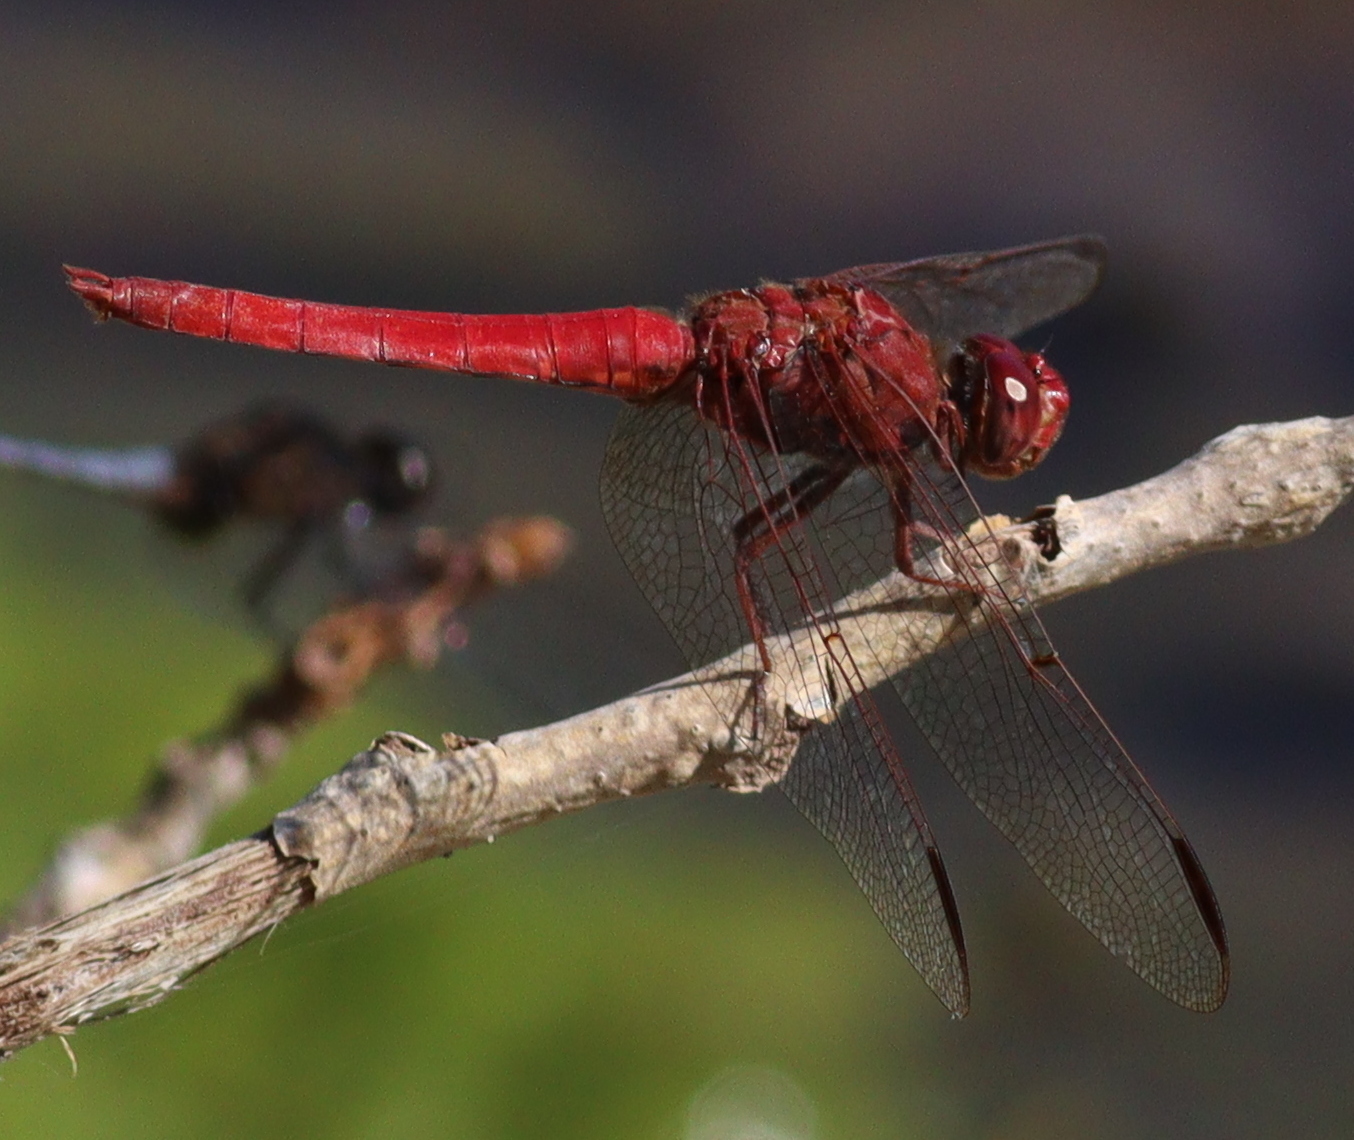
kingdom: Animalia
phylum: Arthropoda
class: Insecta
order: Odonata
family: Libellulidae
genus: Orthemis
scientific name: Orthemis nodiplaga
